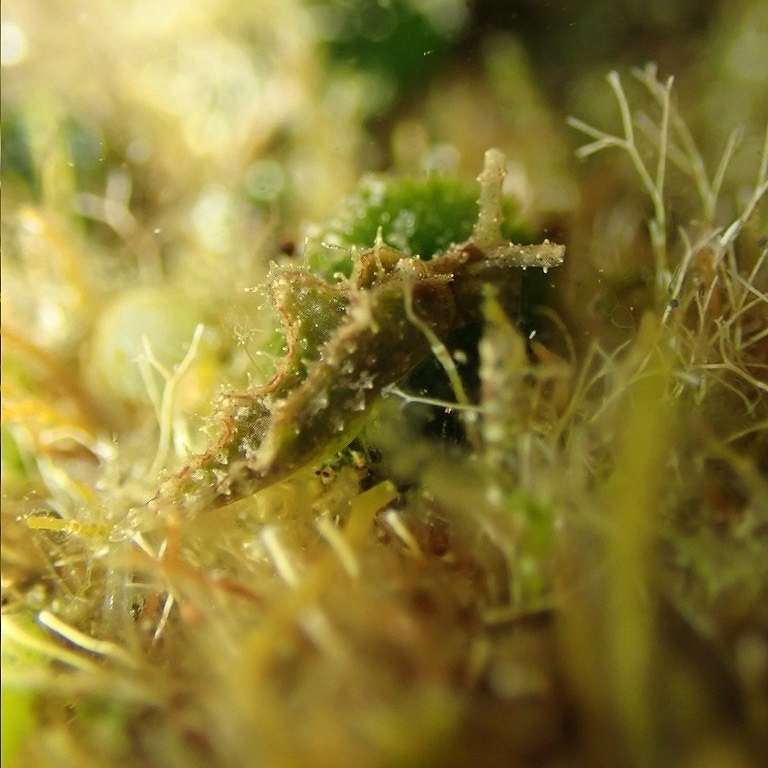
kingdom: Animalia
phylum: Mollusca
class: Gastropoda
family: Plakobranchidae
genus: Elysia
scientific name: Elysia subornata
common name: Ruffled elysia
